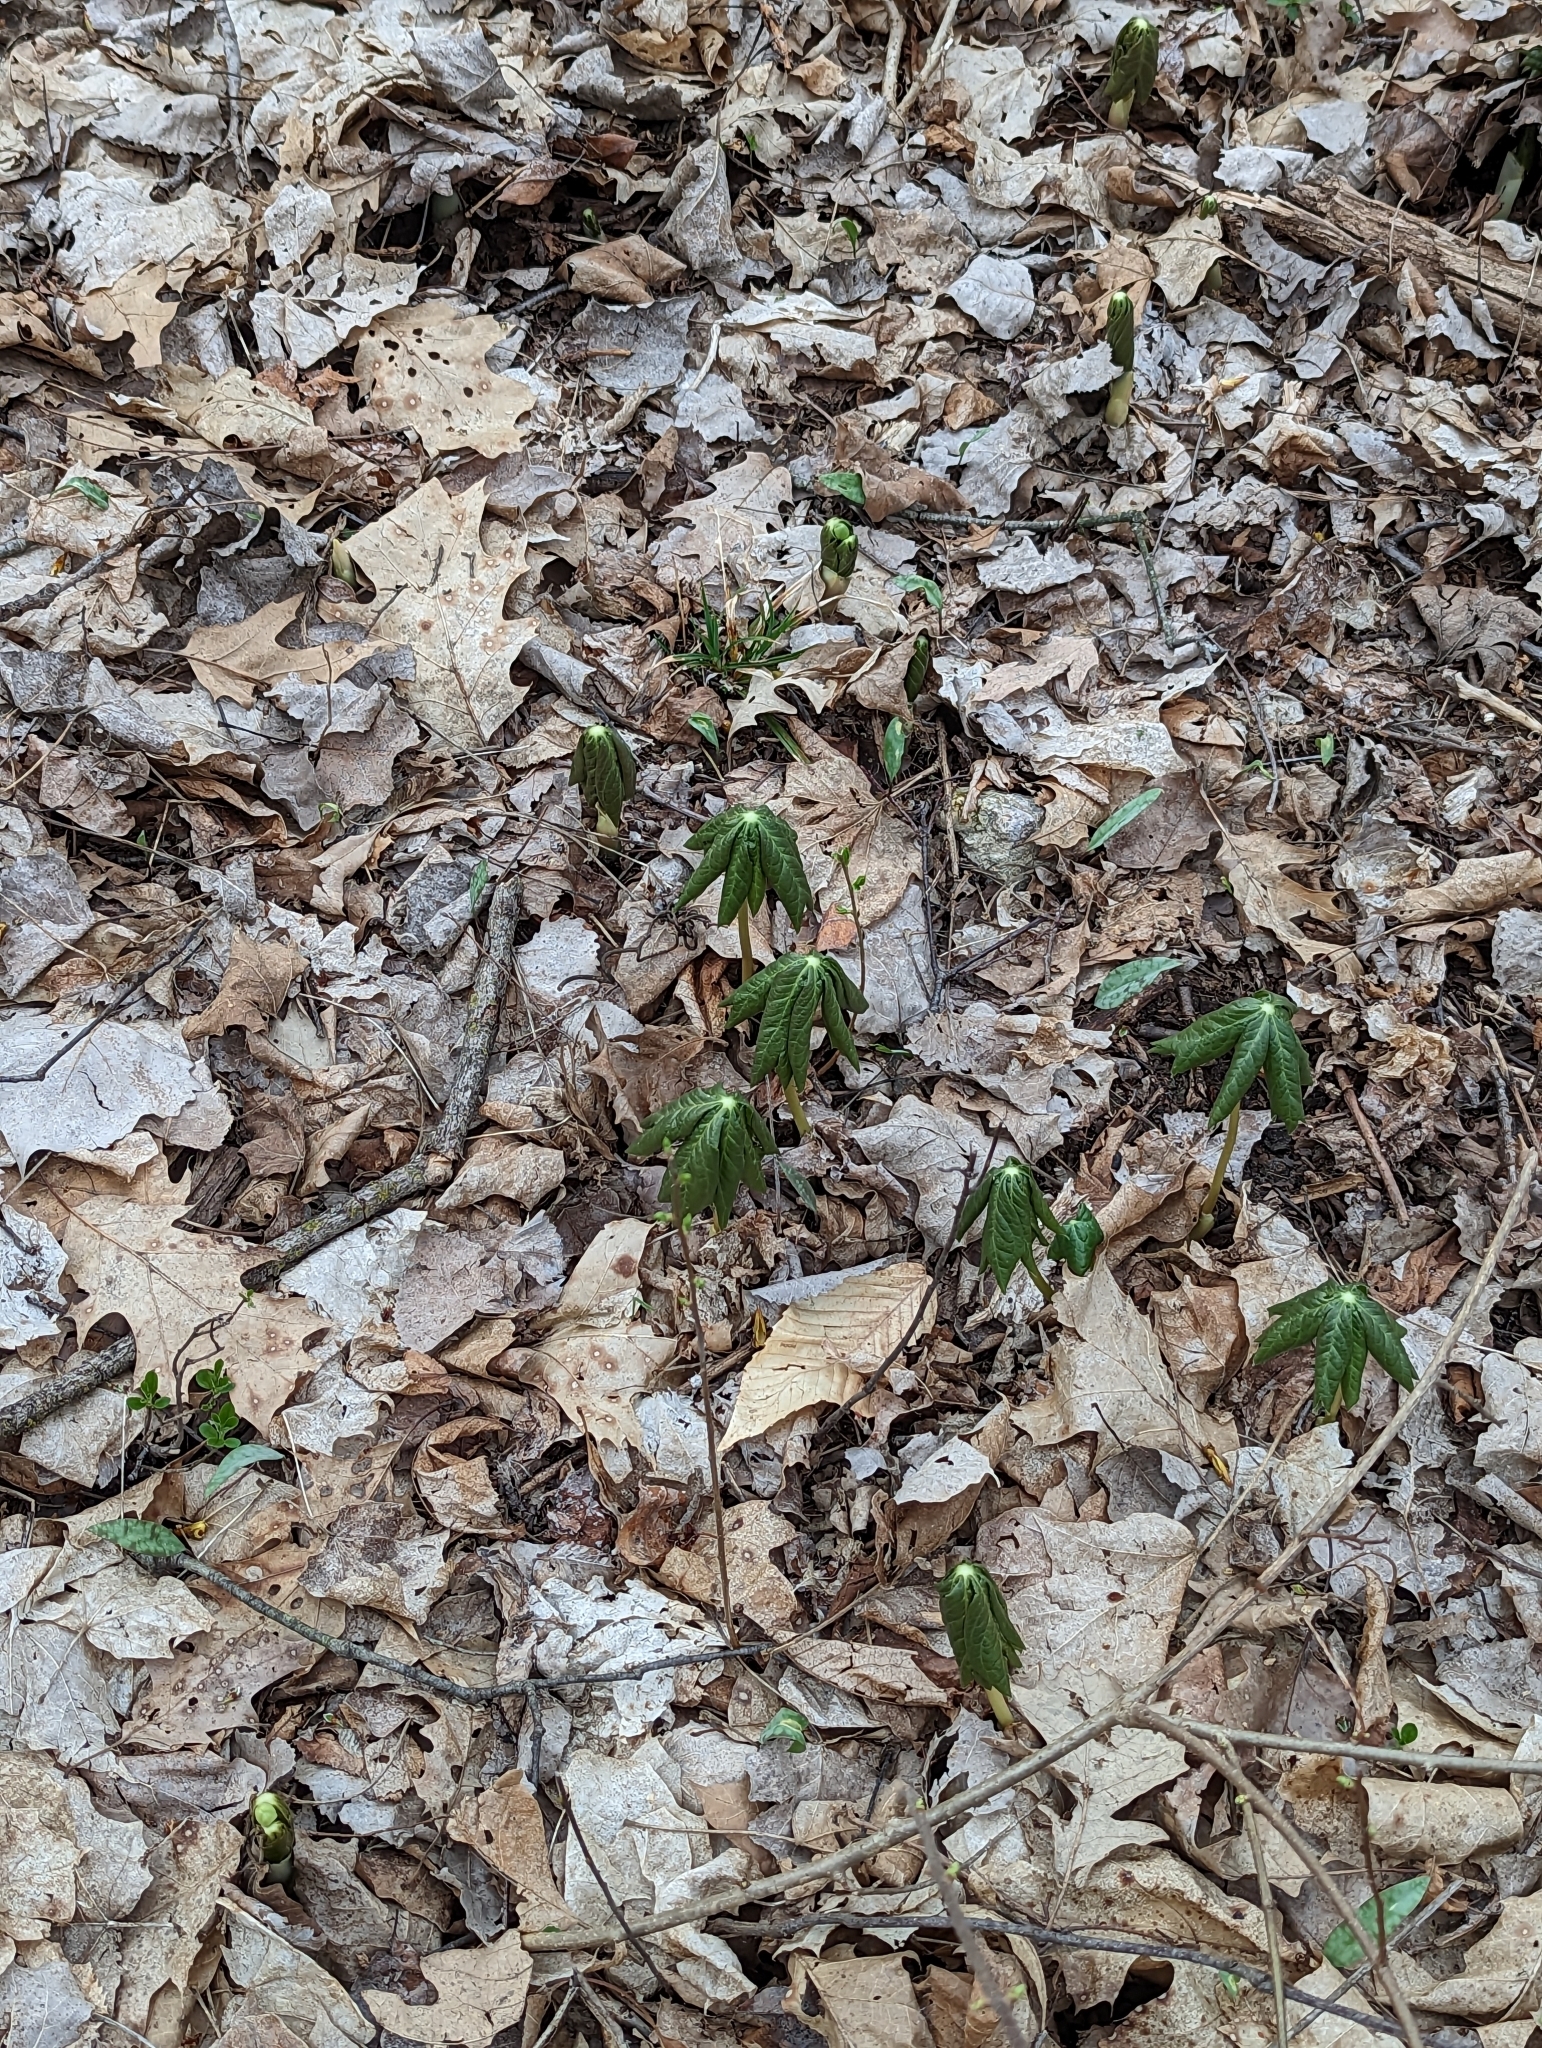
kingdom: Plantae
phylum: Tracheophyta
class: Magnoliopsida
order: Ranunculales
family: Berberidaceae
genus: Podophyllum
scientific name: Podophyllum peltatum
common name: Wild mandrake
